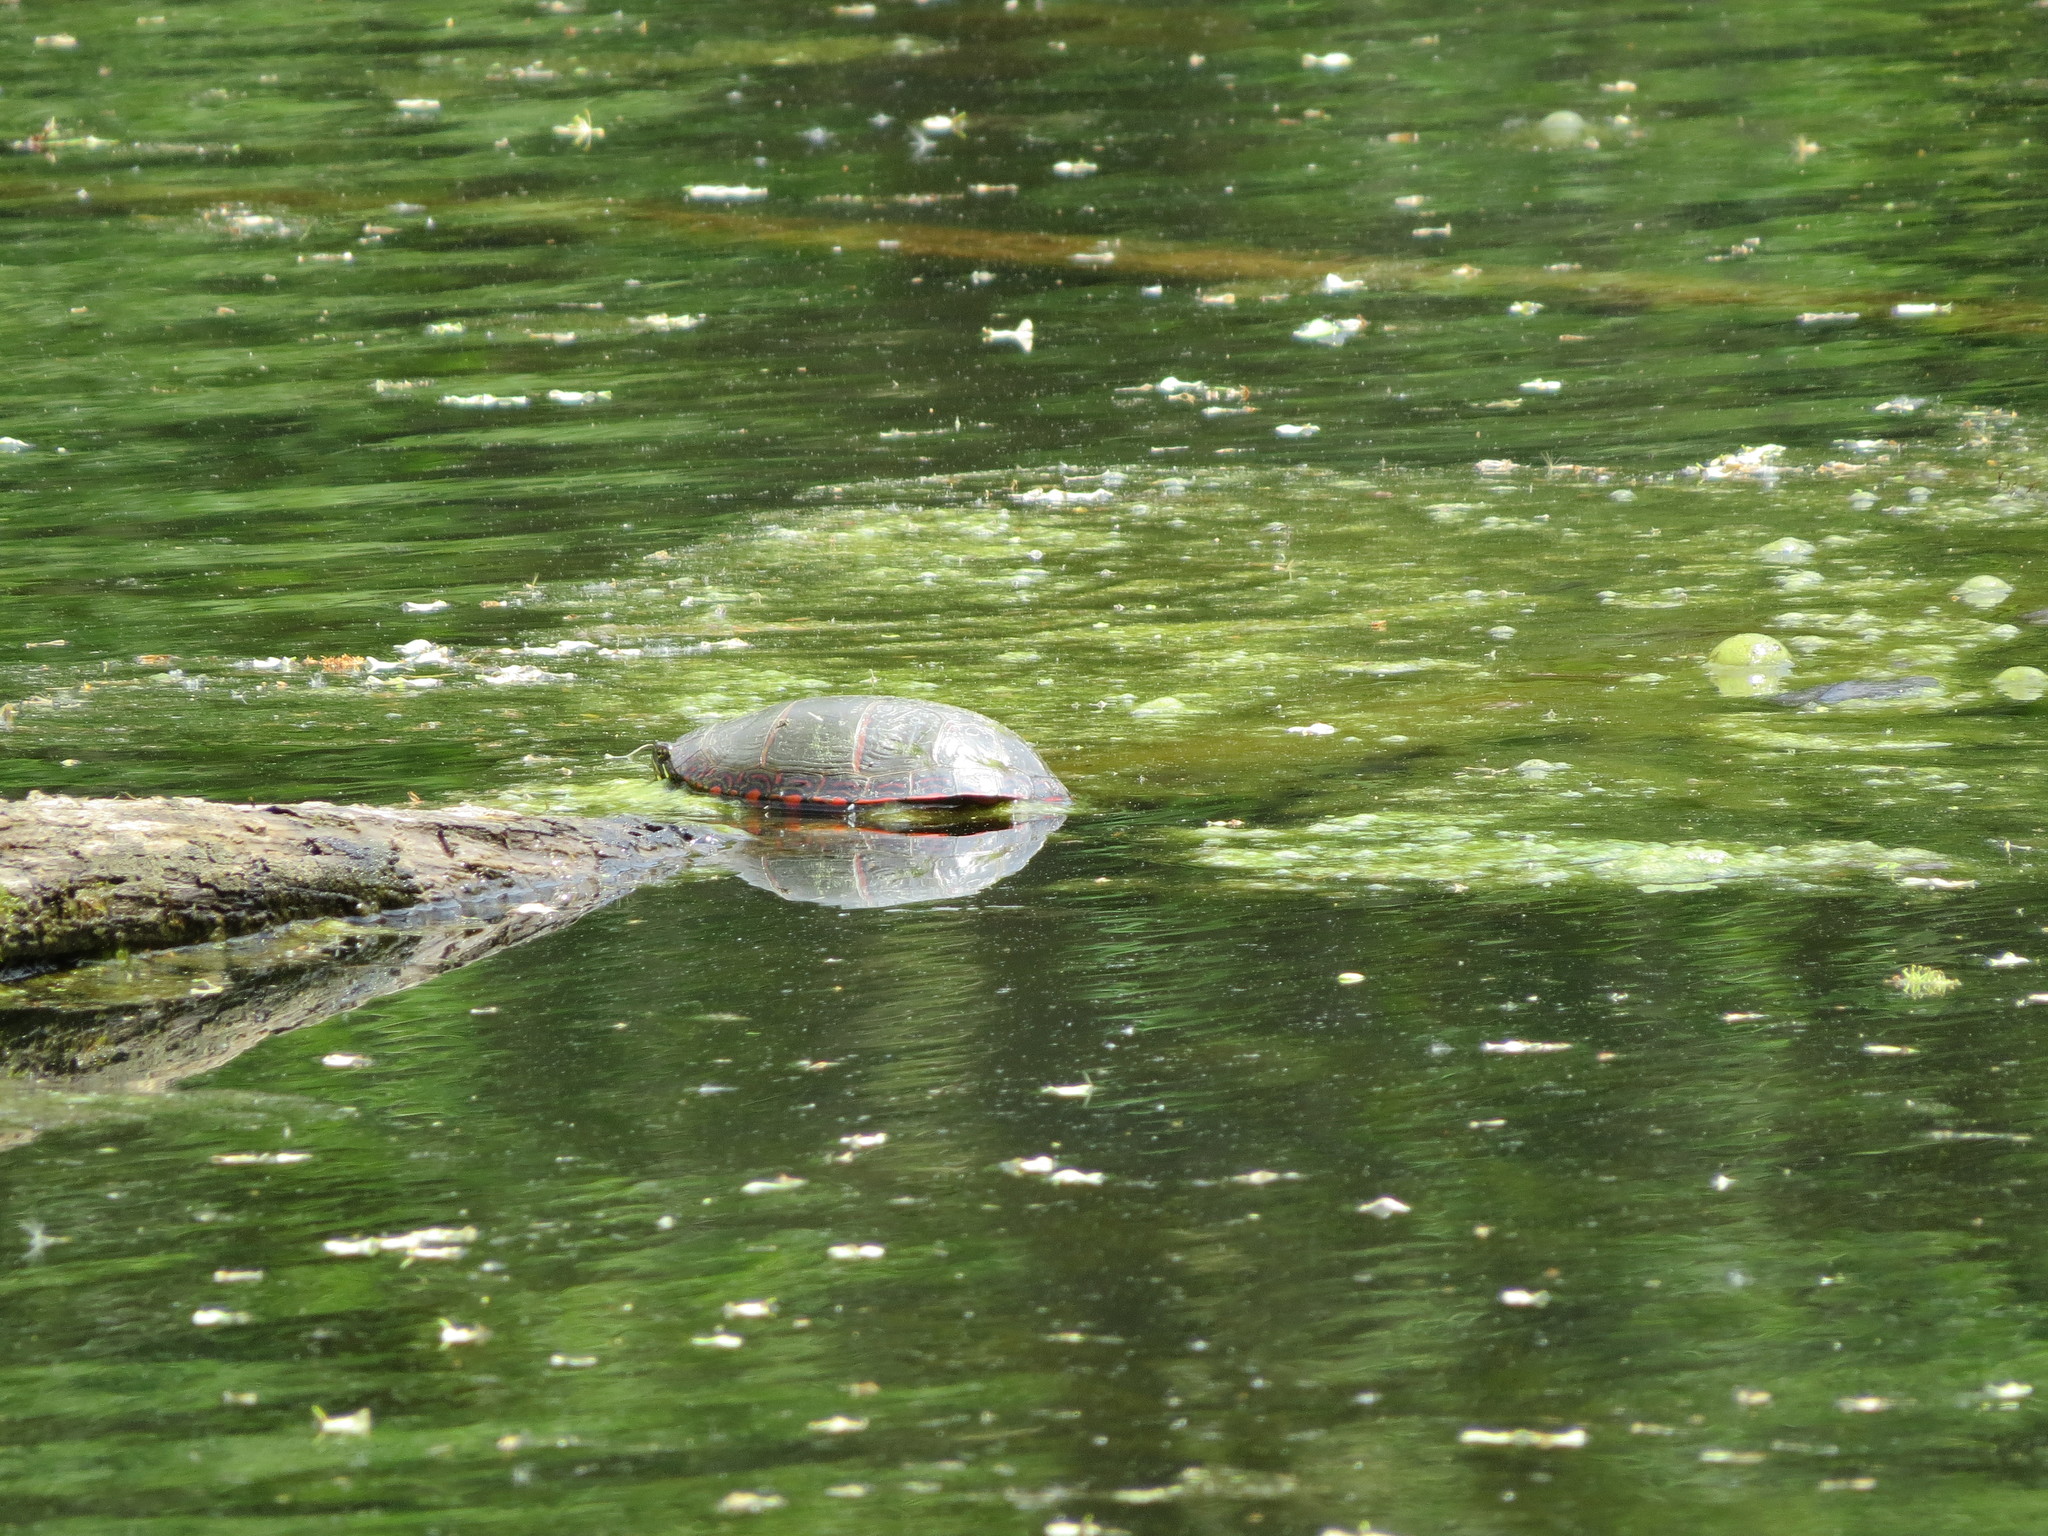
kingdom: Animalia
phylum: Chordata
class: Testudines
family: Emydidae
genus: Chrysemys
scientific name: Chrysemys picta
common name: Painted turtle
